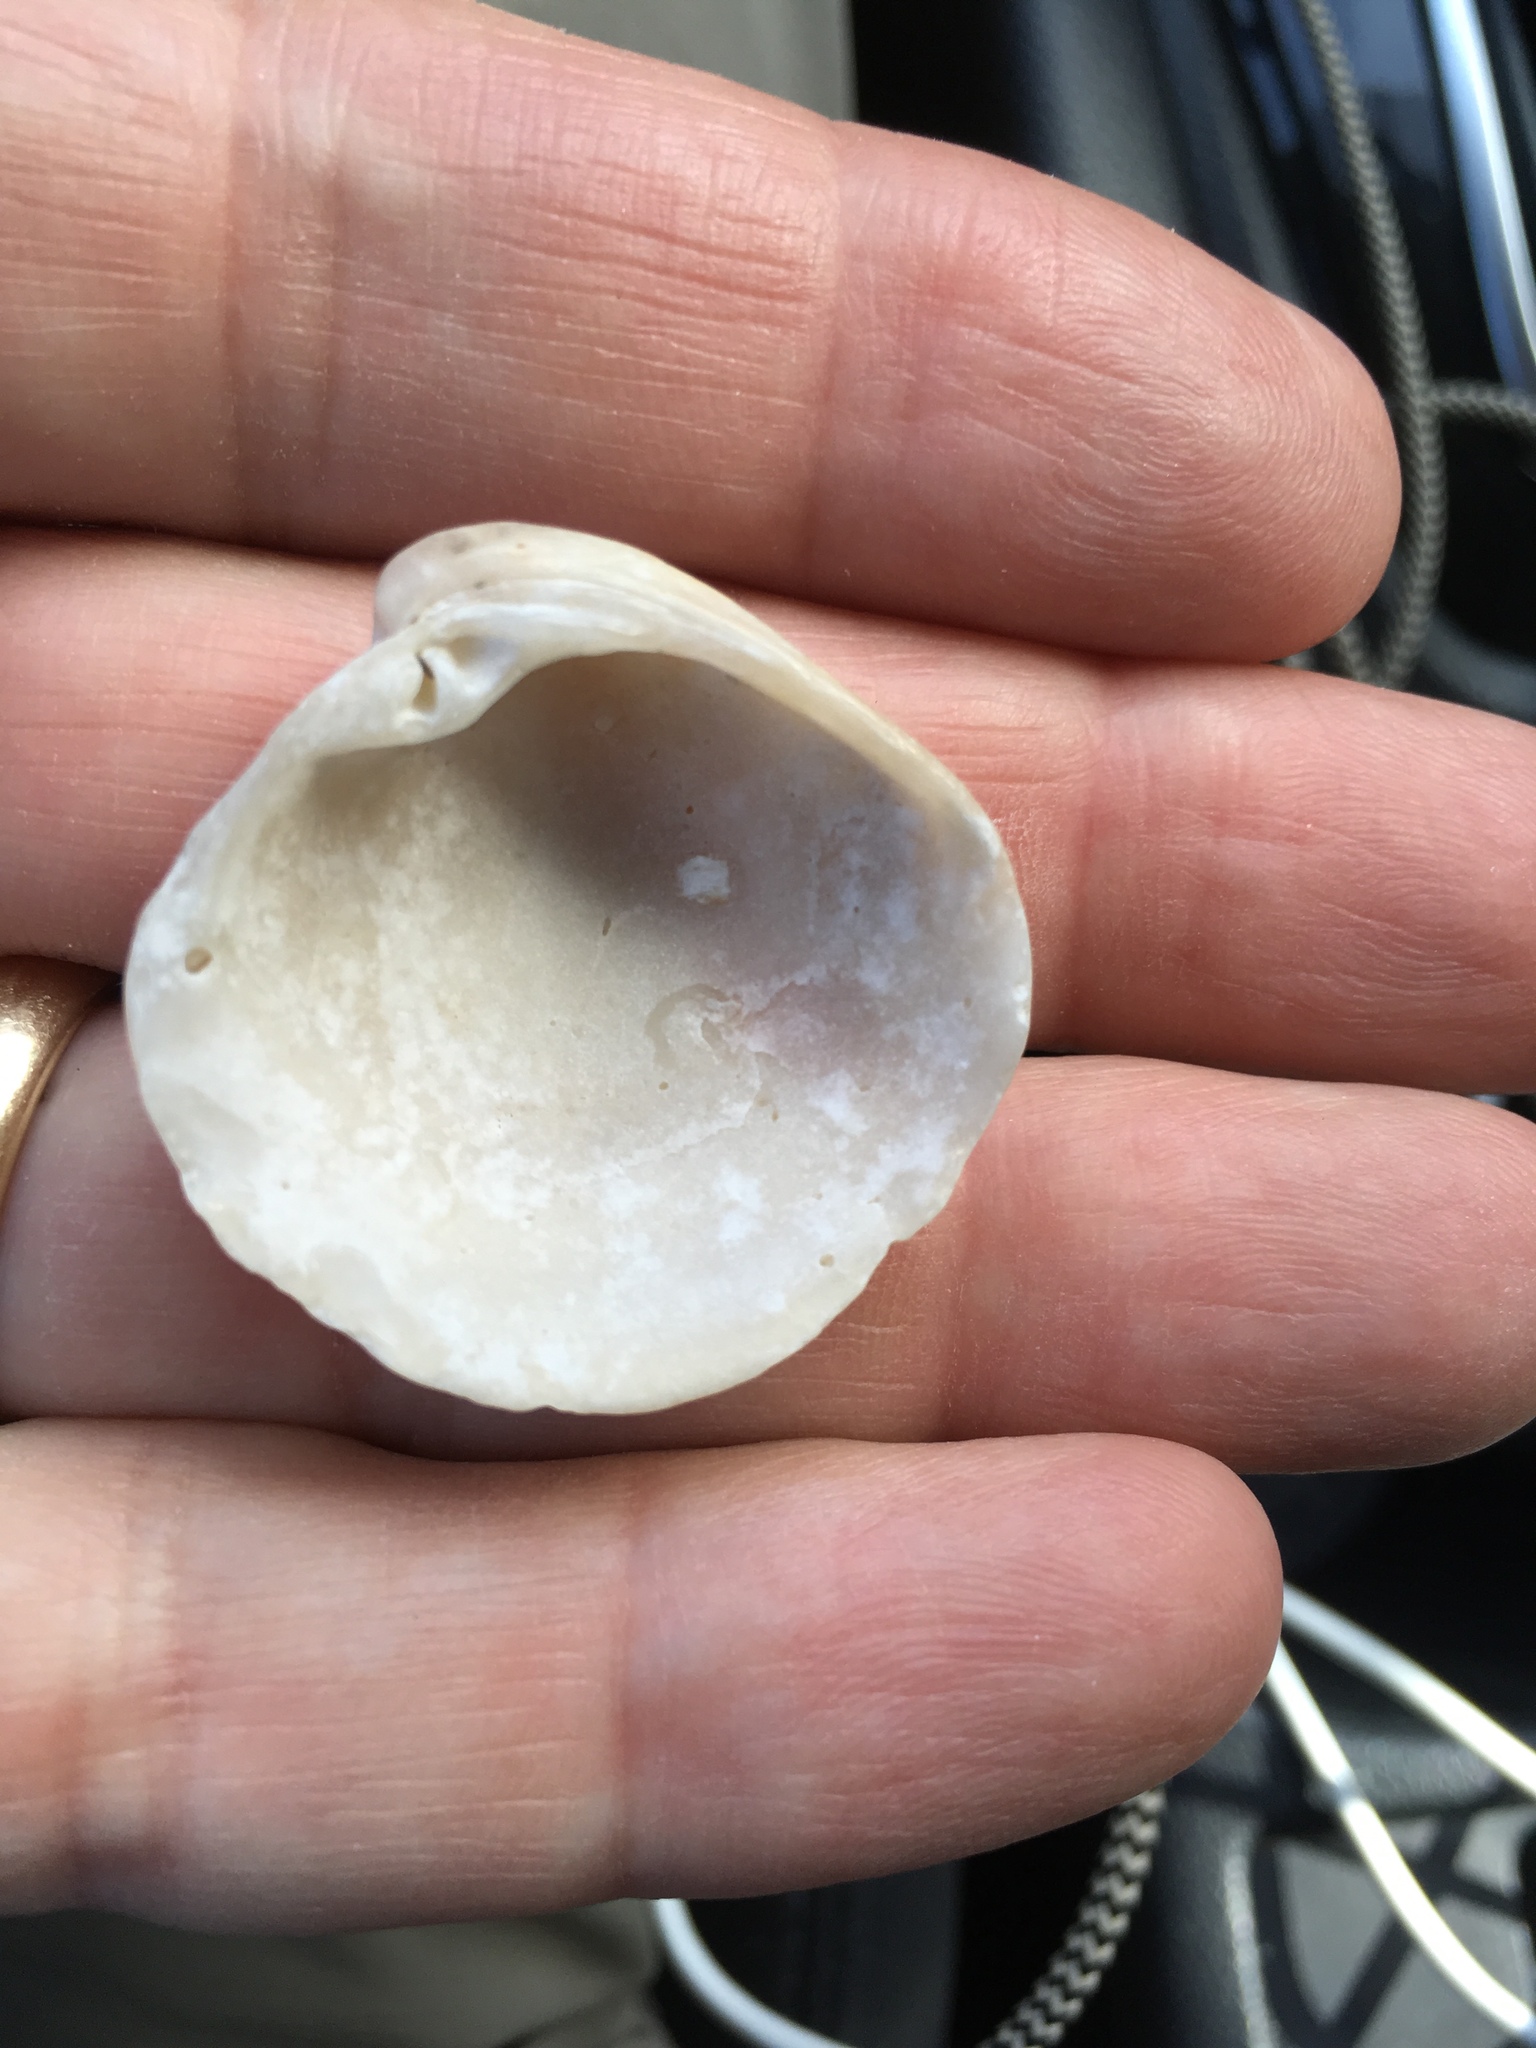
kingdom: Animalia
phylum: Mollusca
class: Bivalvia
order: Venerida
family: Veneridae
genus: Chionopsis
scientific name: Chionopsis intapurpurea
